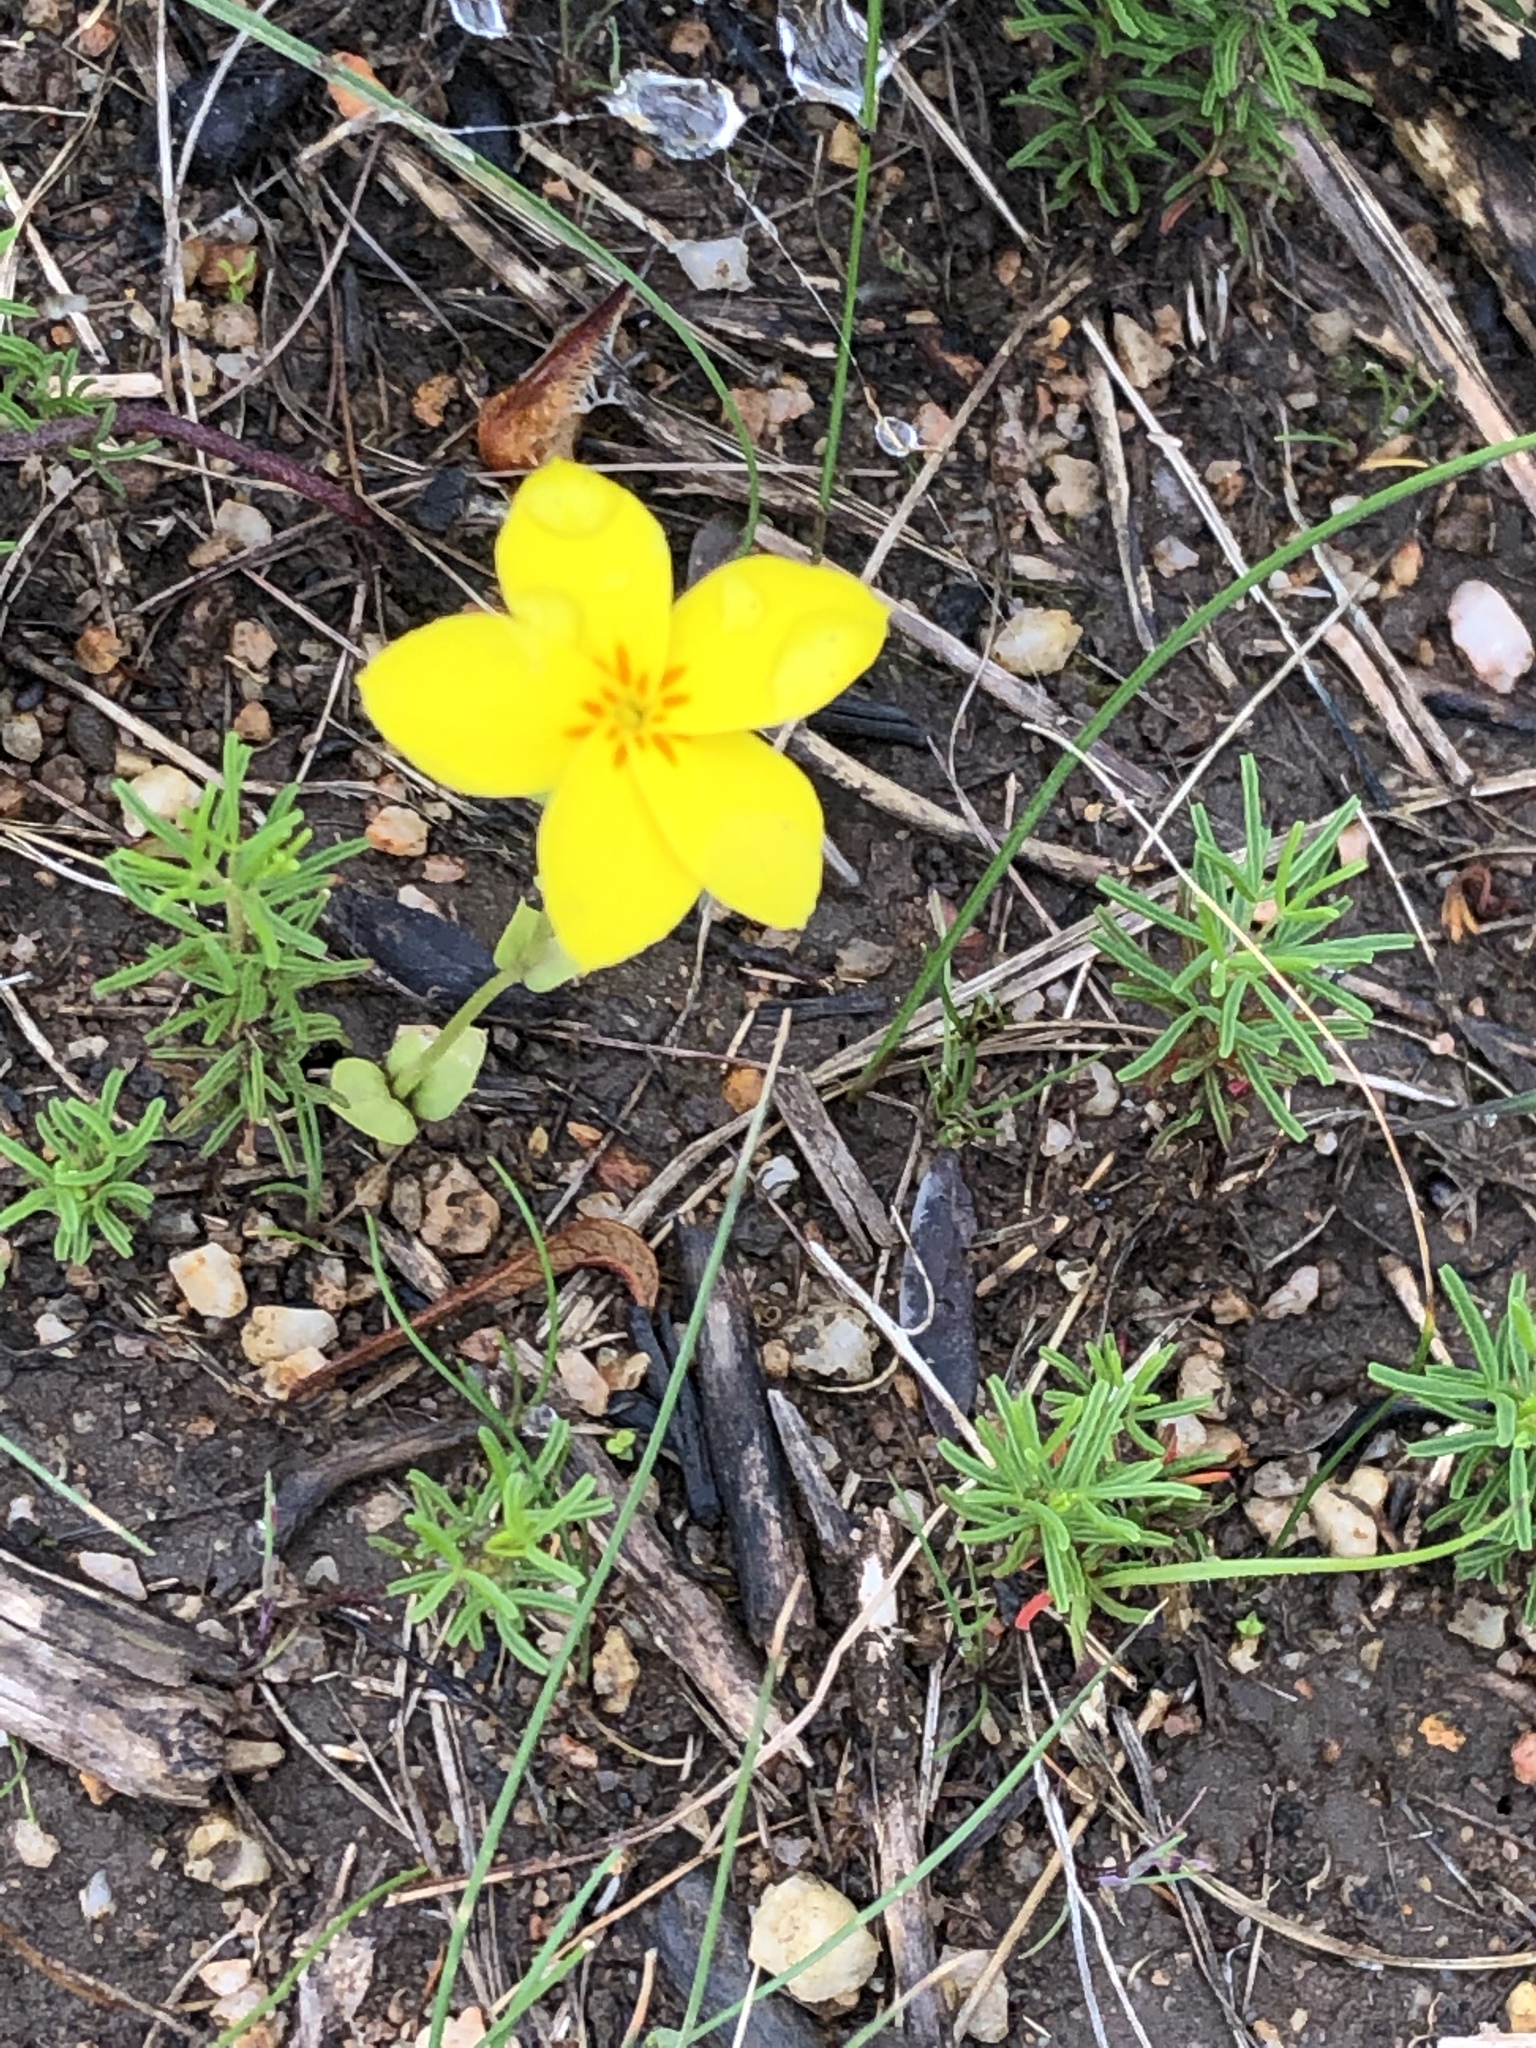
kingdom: Plantae
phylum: Tracheophyta
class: Magnoliopsida
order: Gentianales
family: Gentianaceae
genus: Sebaea
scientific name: Sebaea exacoides
